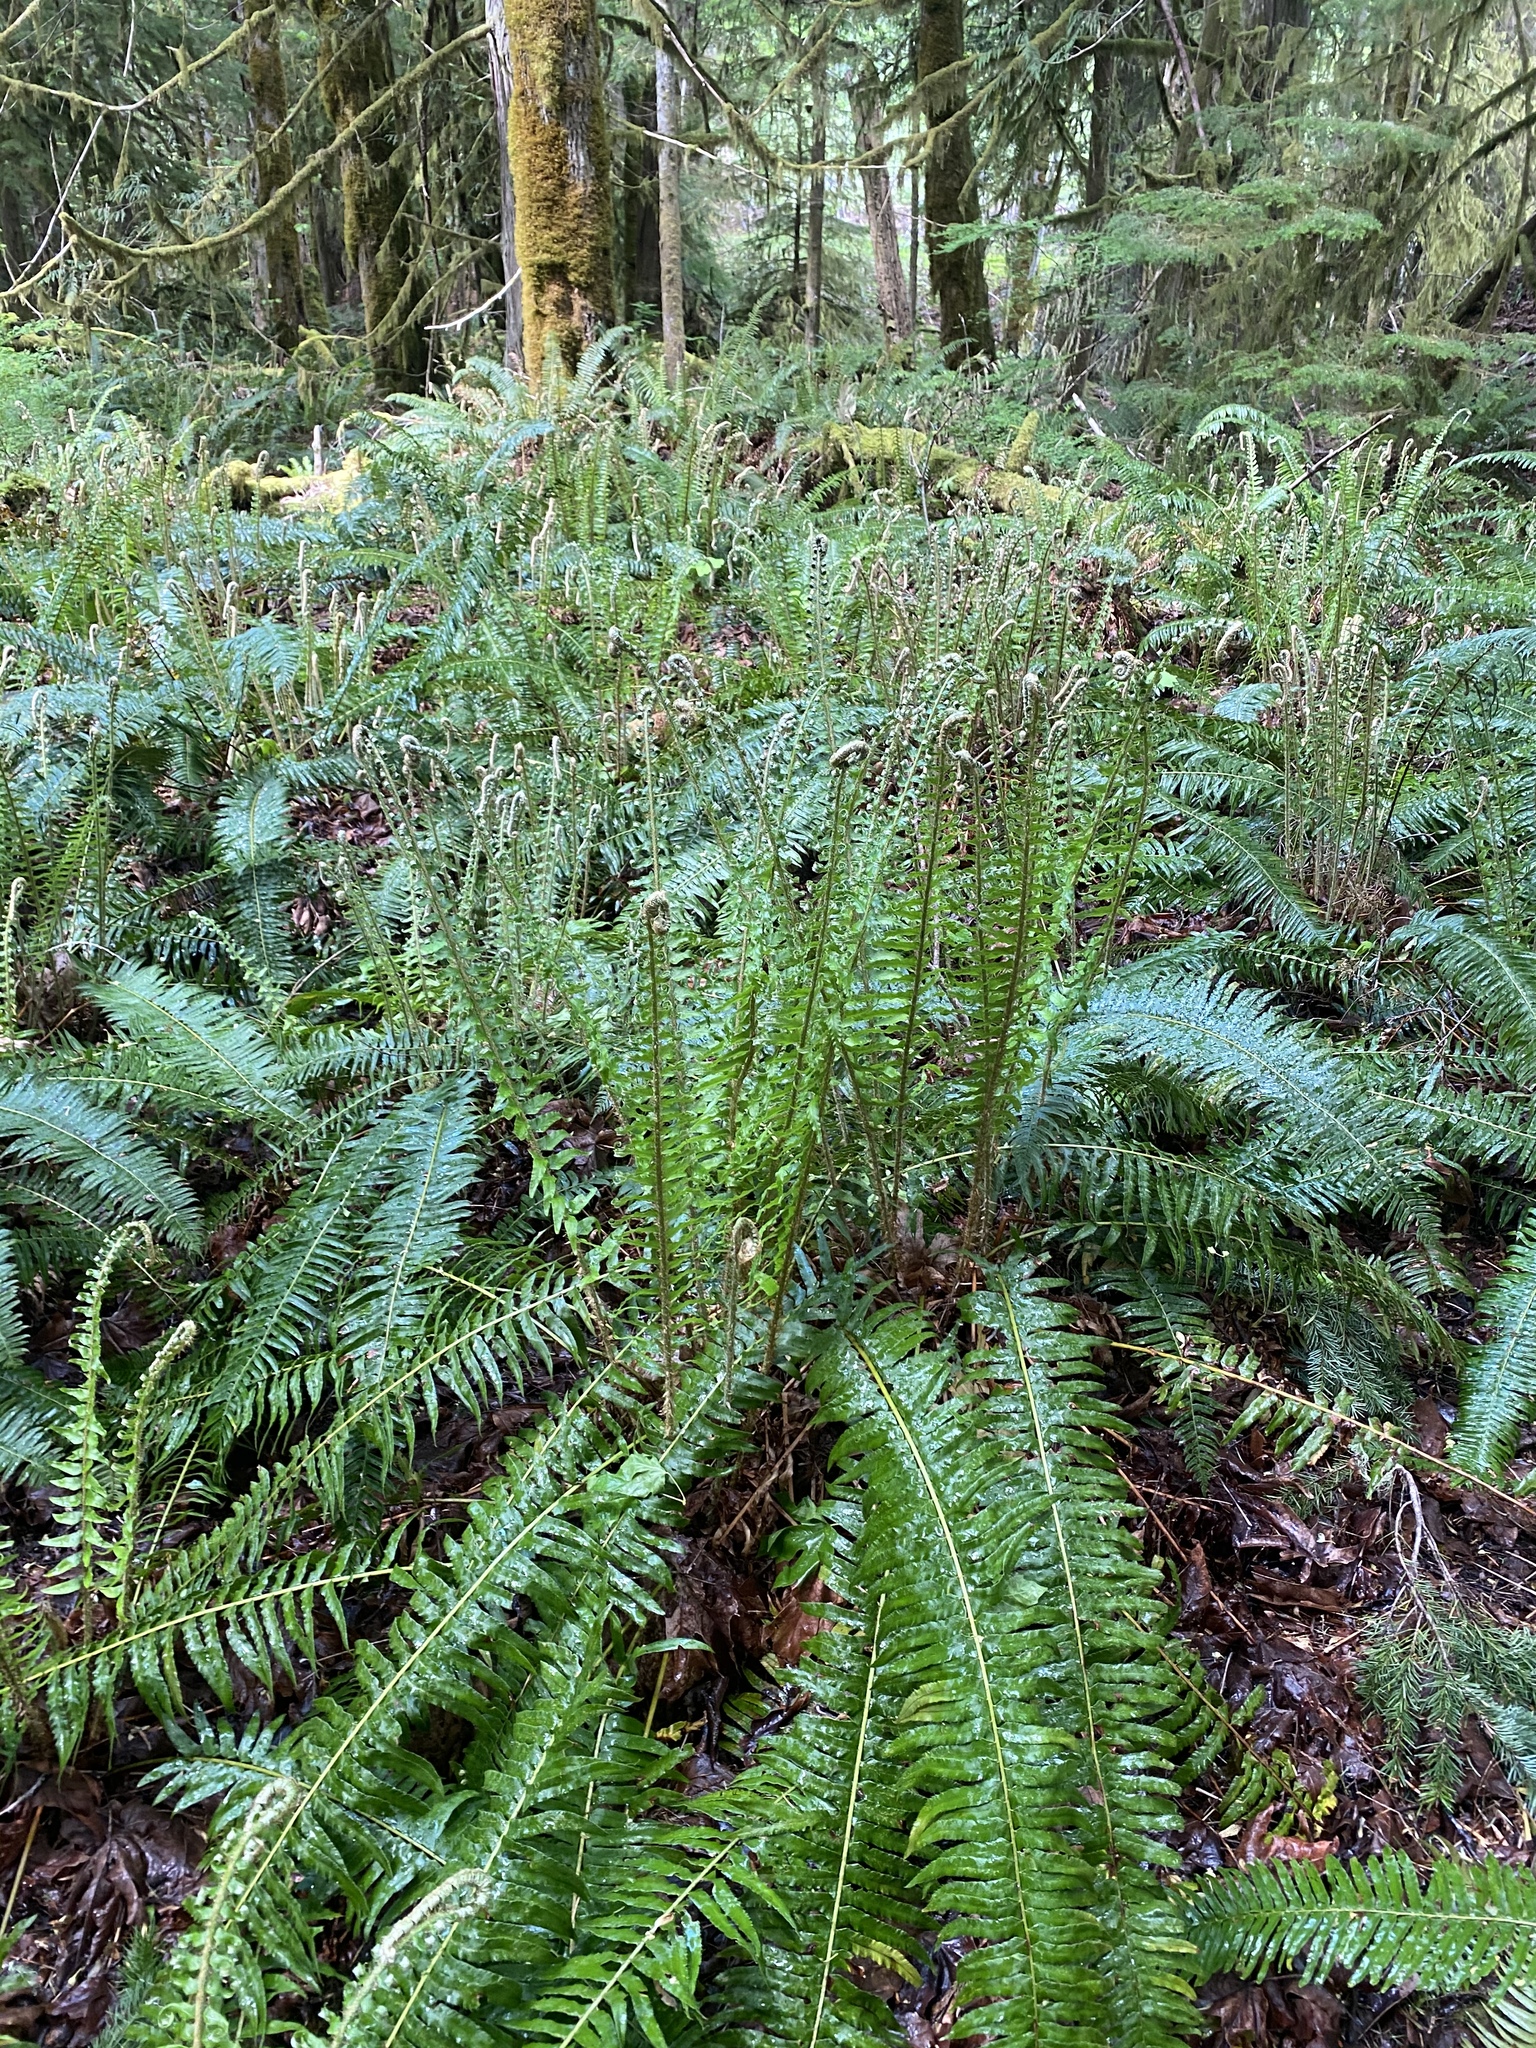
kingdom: Plantae
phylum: Tracheophyta
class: Polypodiopsida
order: Polypodiales
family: Dryopteridaceae
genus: Polystichum
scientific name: Polystichum munitum
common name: Western sword-fern
